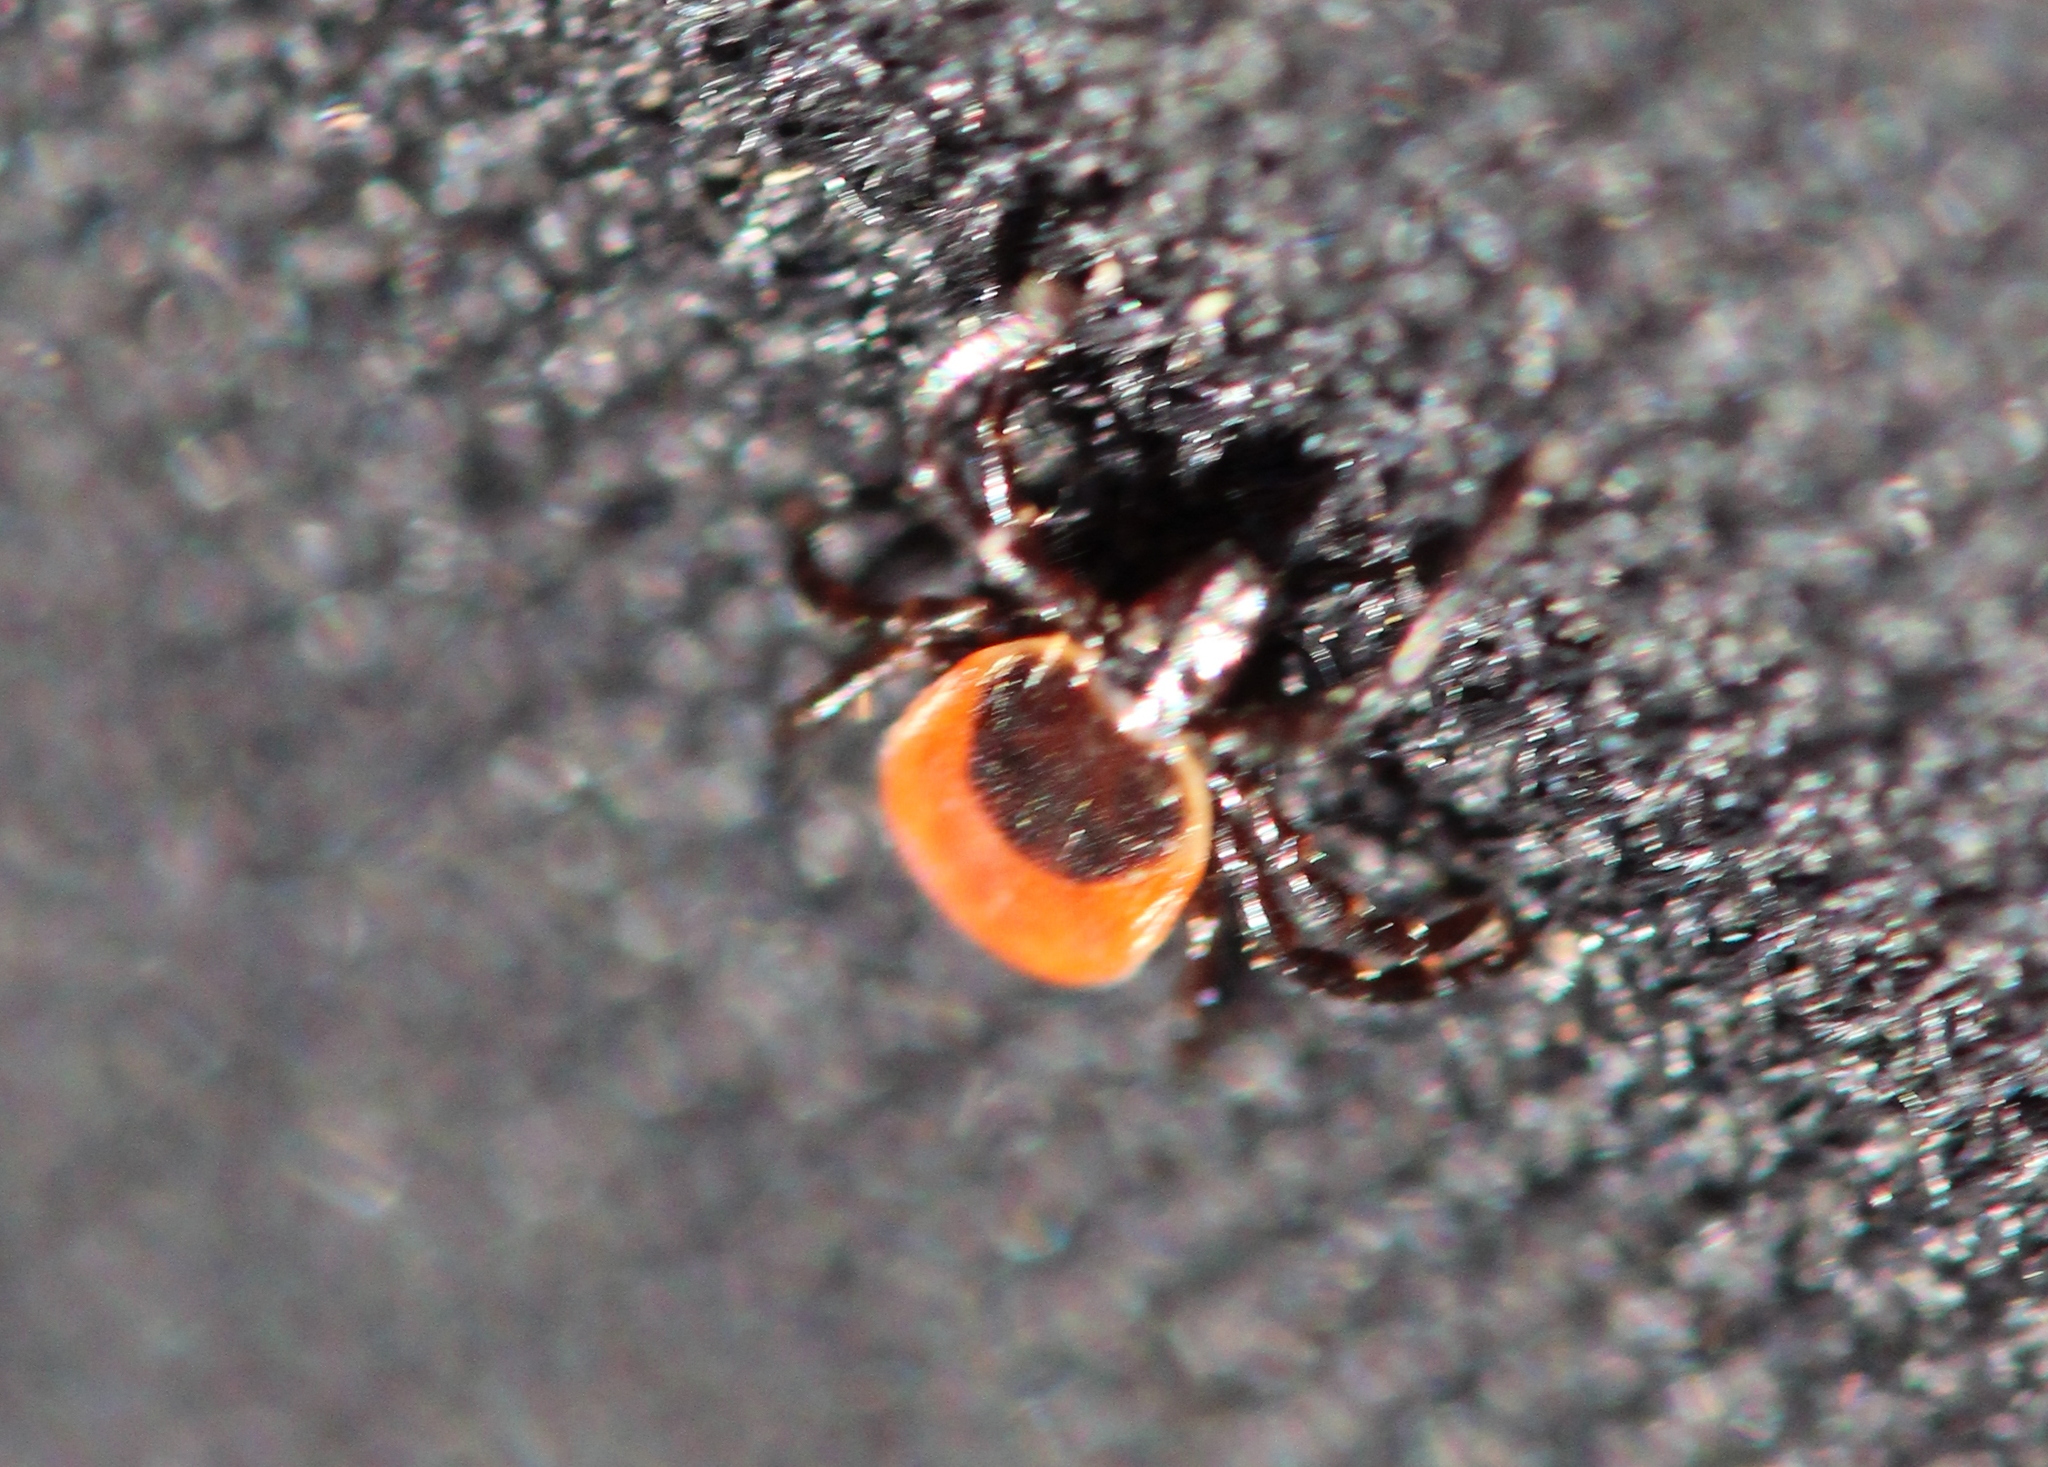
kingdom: Animalia
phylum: Arthropoda
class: Arachnida
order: Ixodida
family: Ixodidae
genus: Ixodes
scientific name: Ixodes scapularis
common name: Black legged tick
